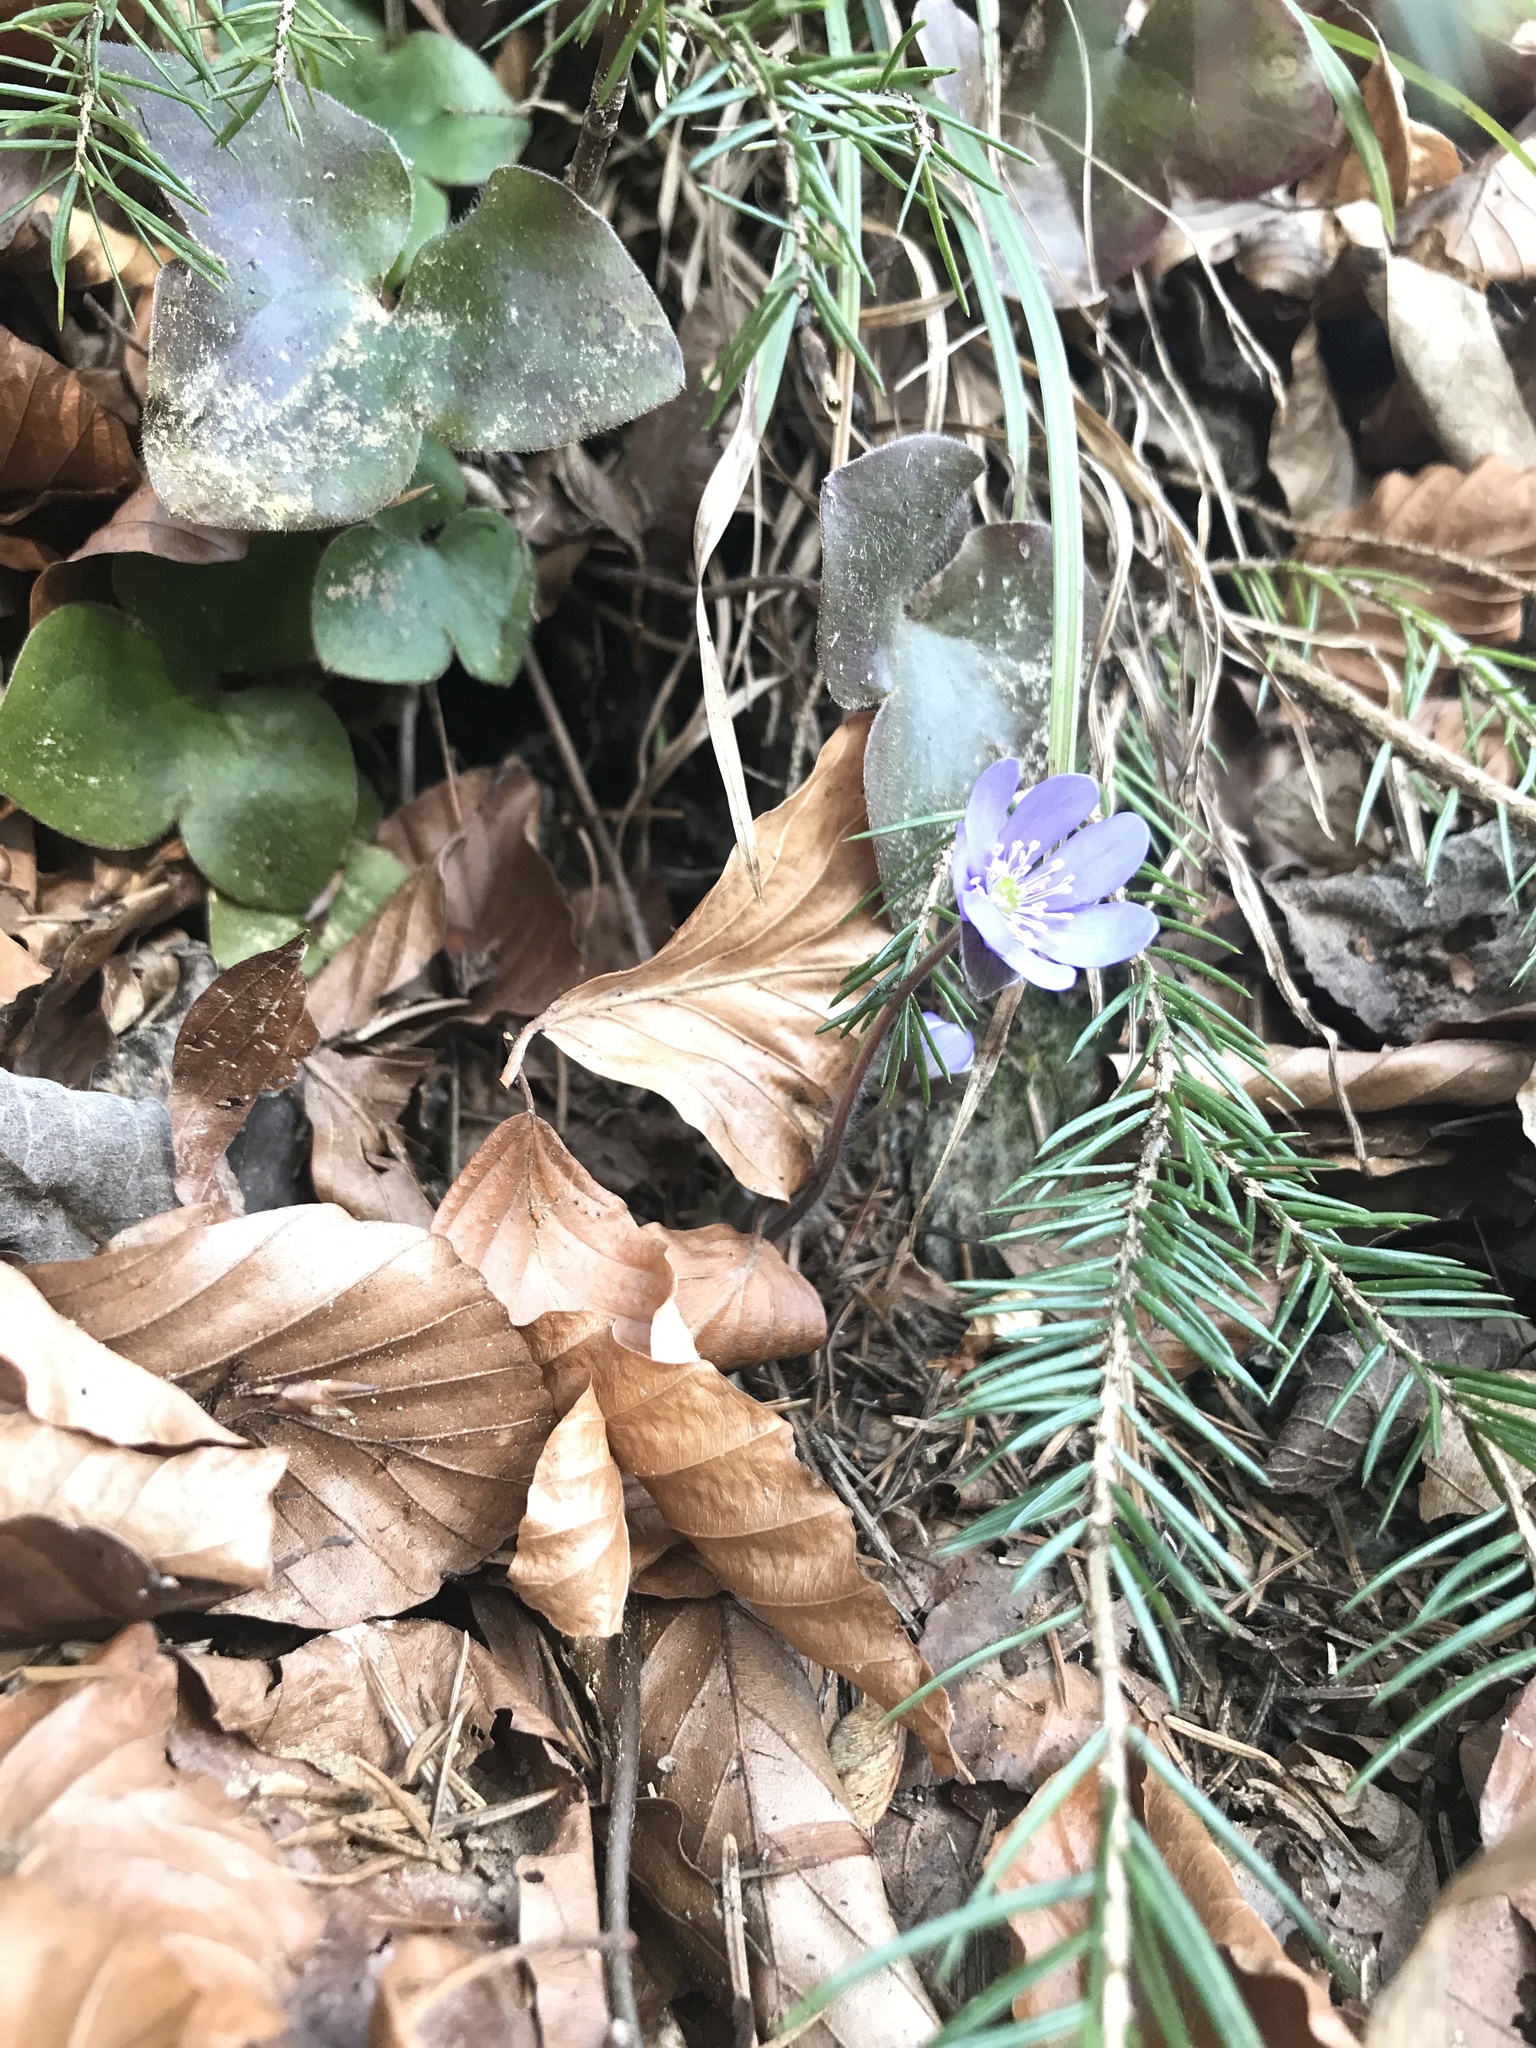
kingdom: Plantae
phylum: Tracheophyta
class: Magnoliopsida
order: Ranunculales
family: Ranunculaceae
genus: Hepatica
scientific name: Hepatica nobilis
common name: Liverleaf
